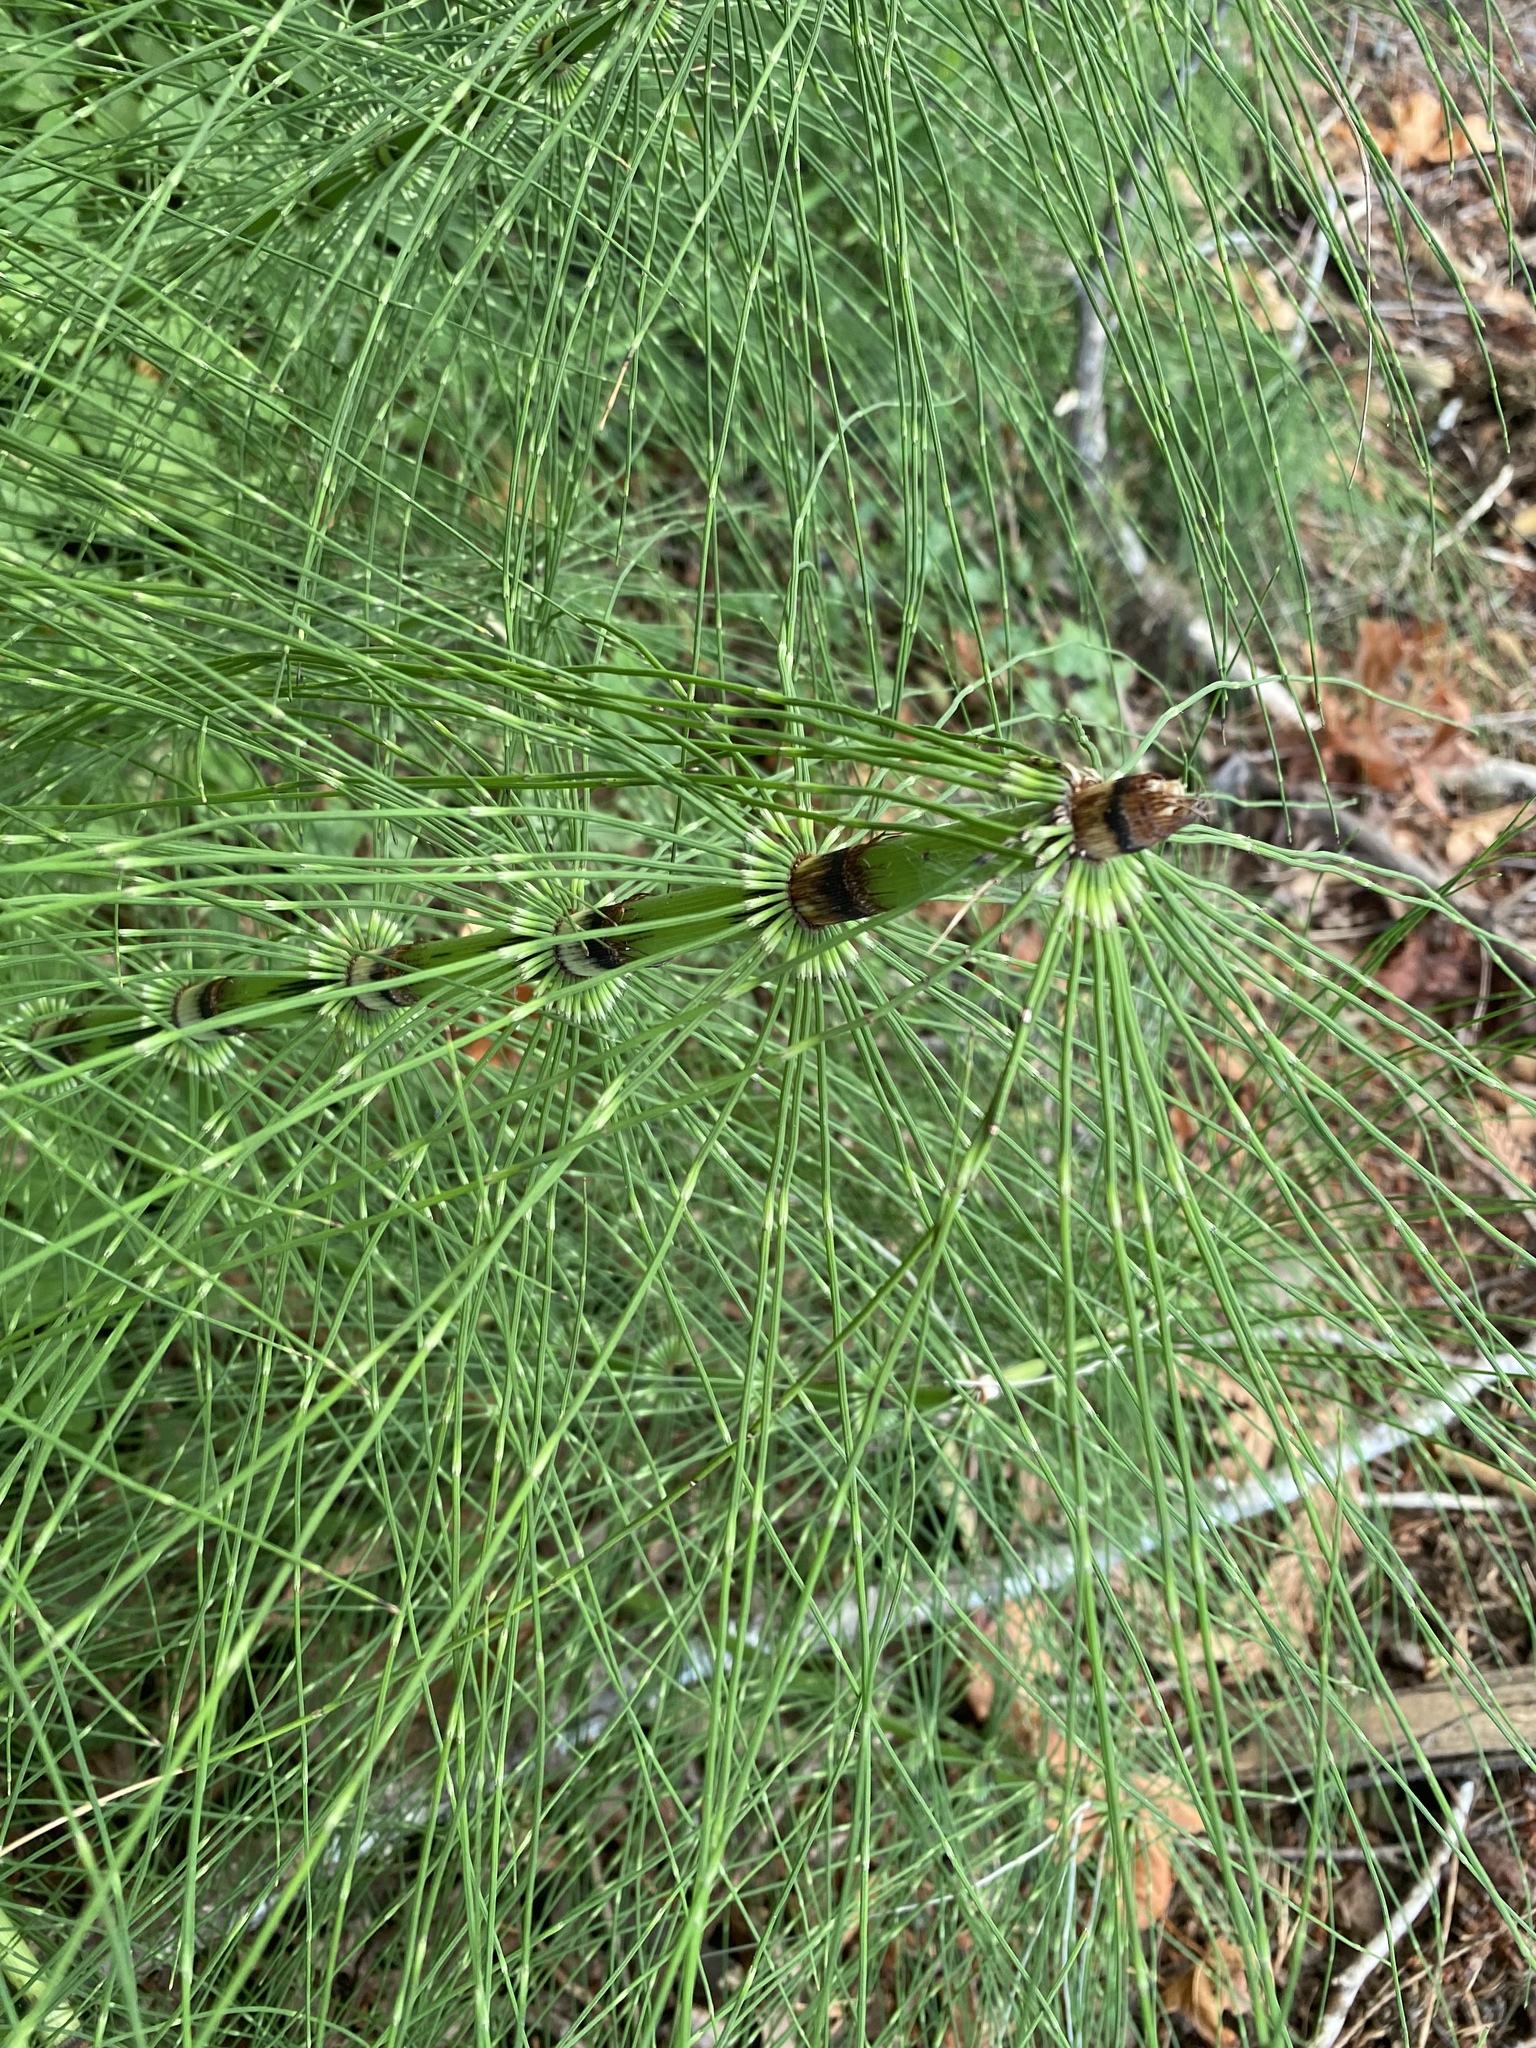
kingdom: Plantae
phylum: Tracheophyta
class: Polypodiopsida
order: Equisetales
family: Equisetaceae
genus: Equisetum
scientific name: Equisetum telmateia
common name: Great horsetail
